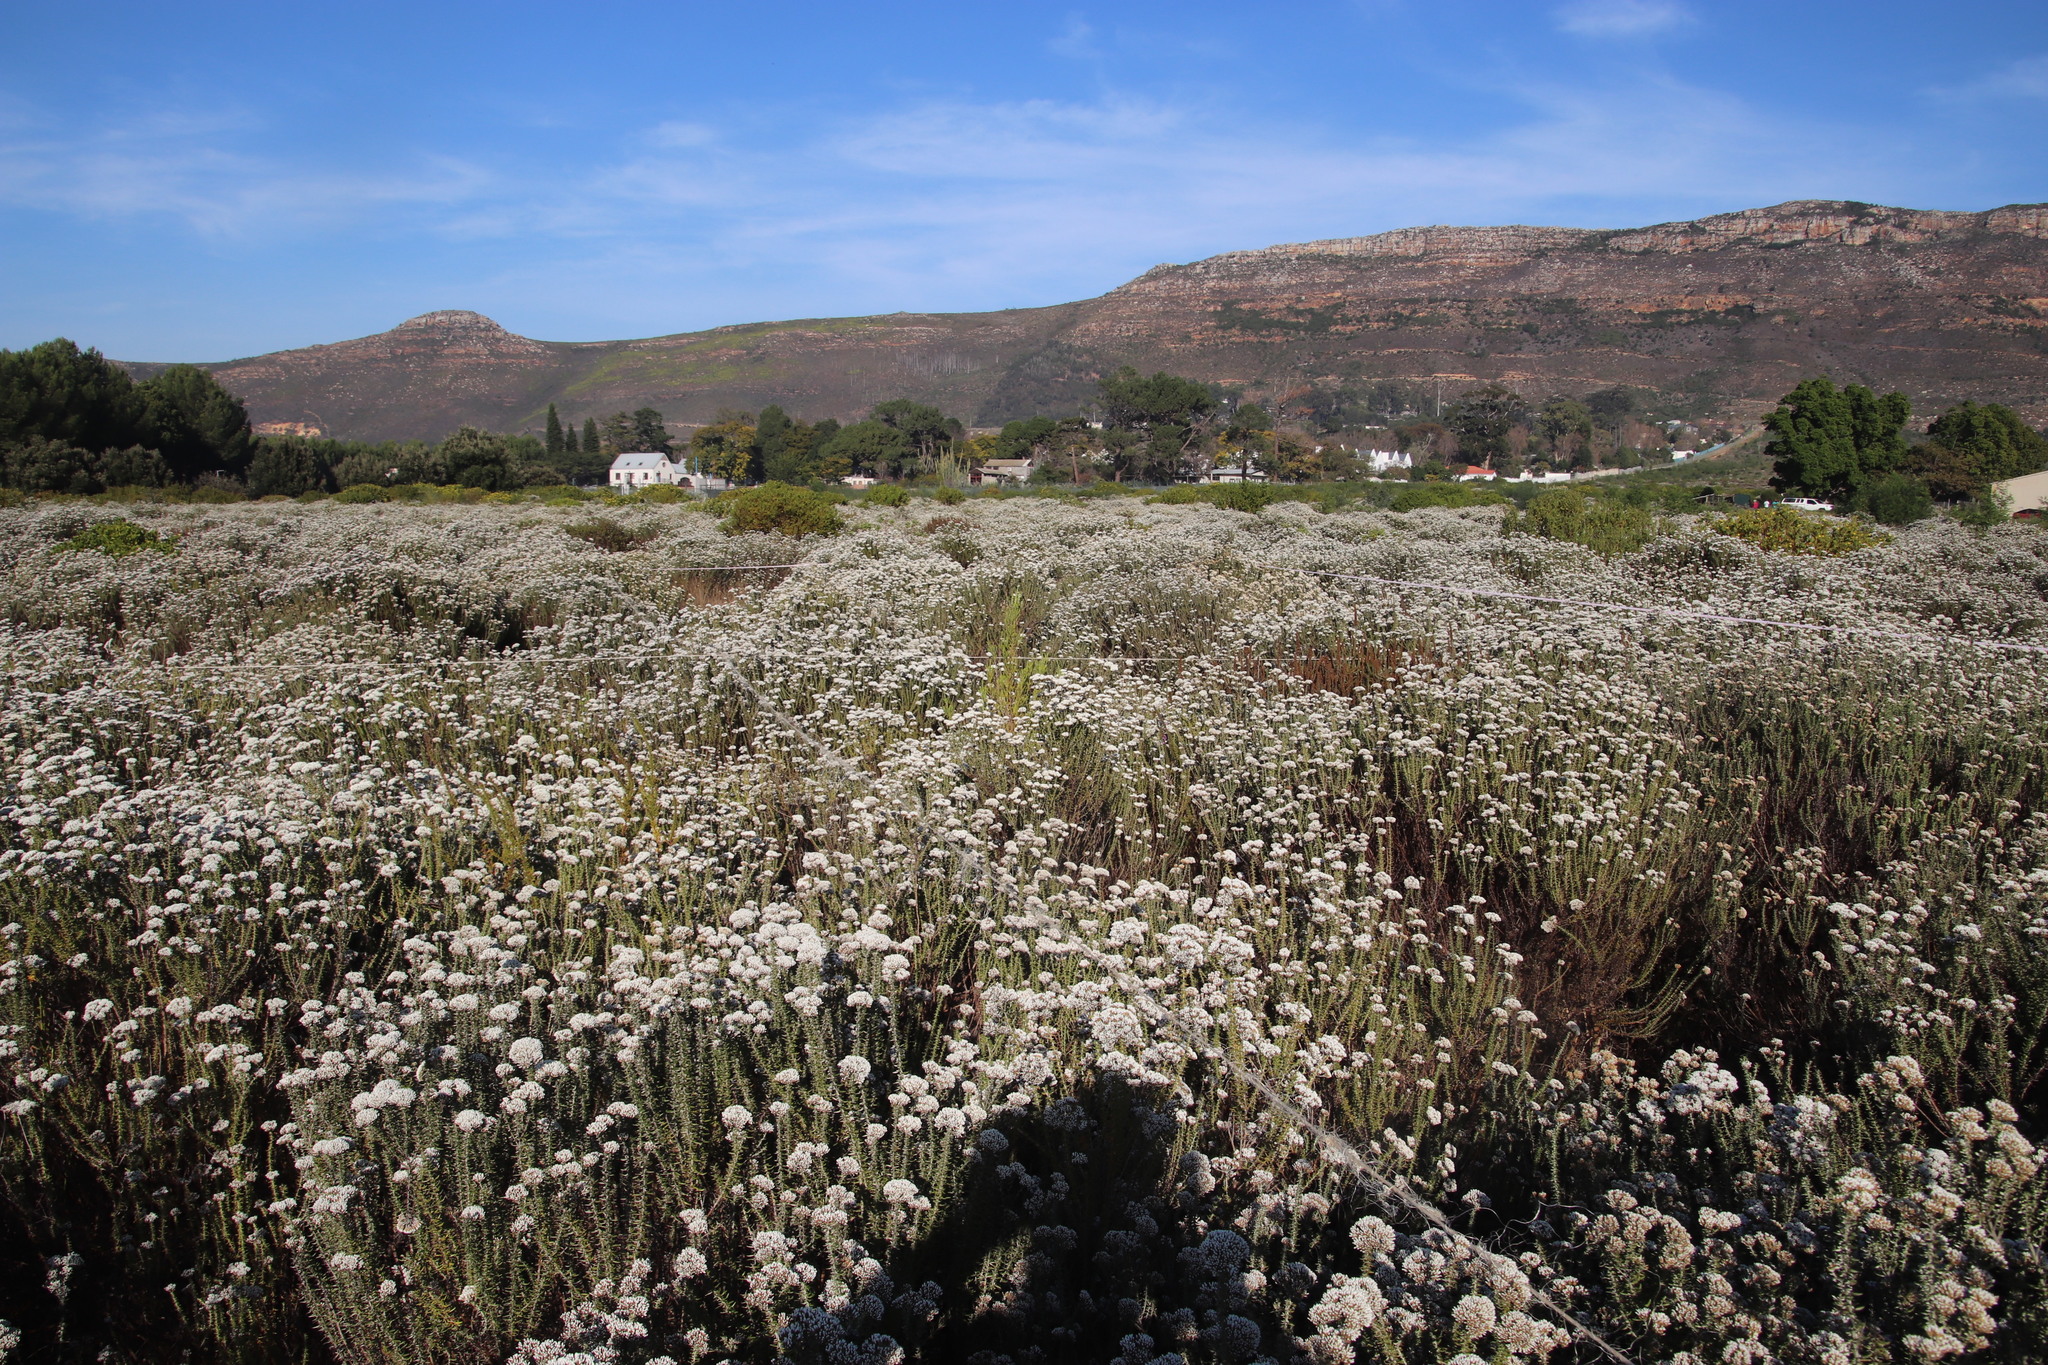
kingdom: Plantae
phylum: Tracheophyta
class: Magnoliopsida
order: Malvales
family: Thymelaeaceae
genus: Passerina
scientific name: Passerina corymbosa
